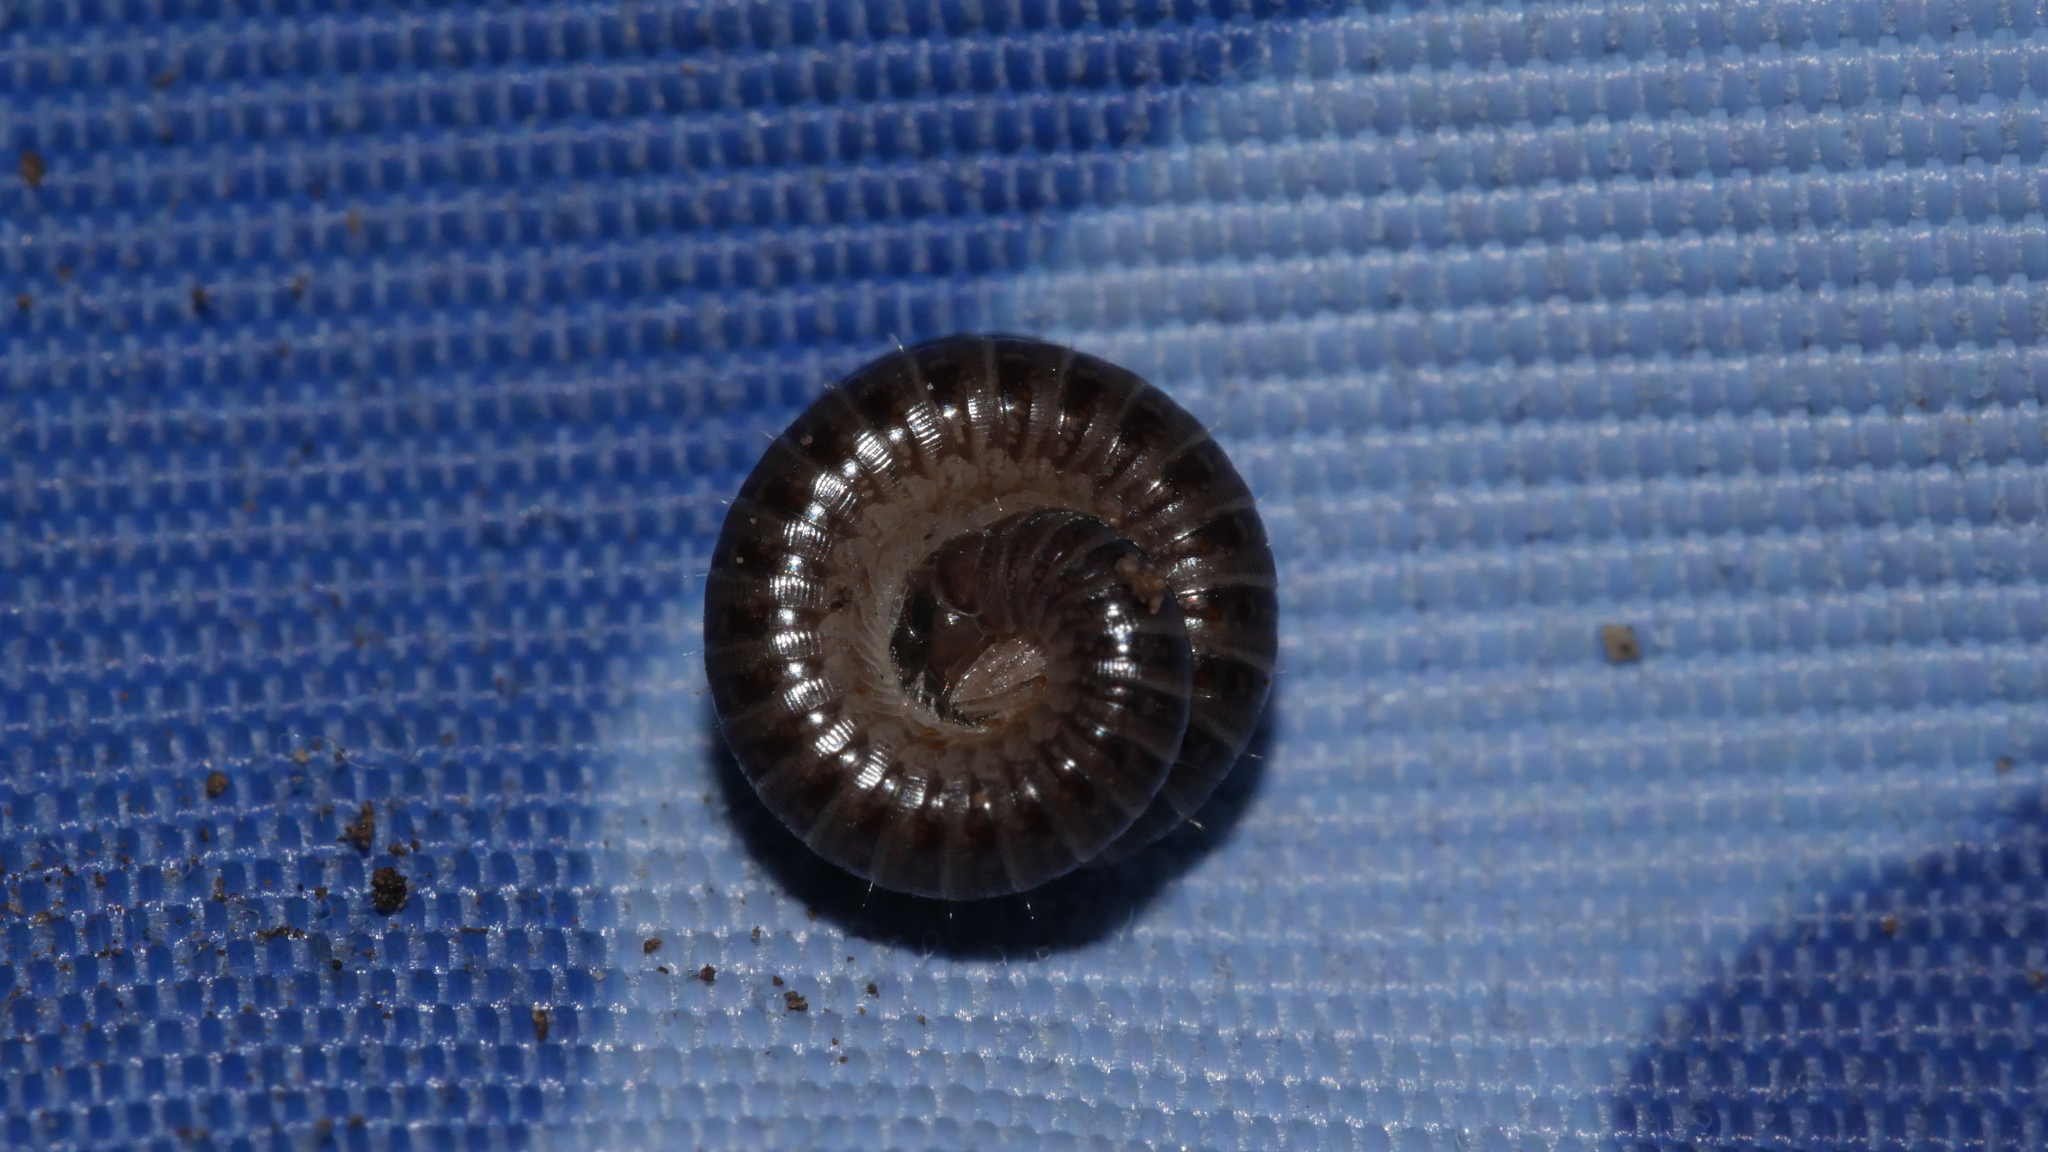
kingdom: Animalia
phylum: Arthropoda
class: Diplopoda
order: Julida
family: Julidae
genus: Ophyiulus
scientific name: Ophyiulus pilosus
